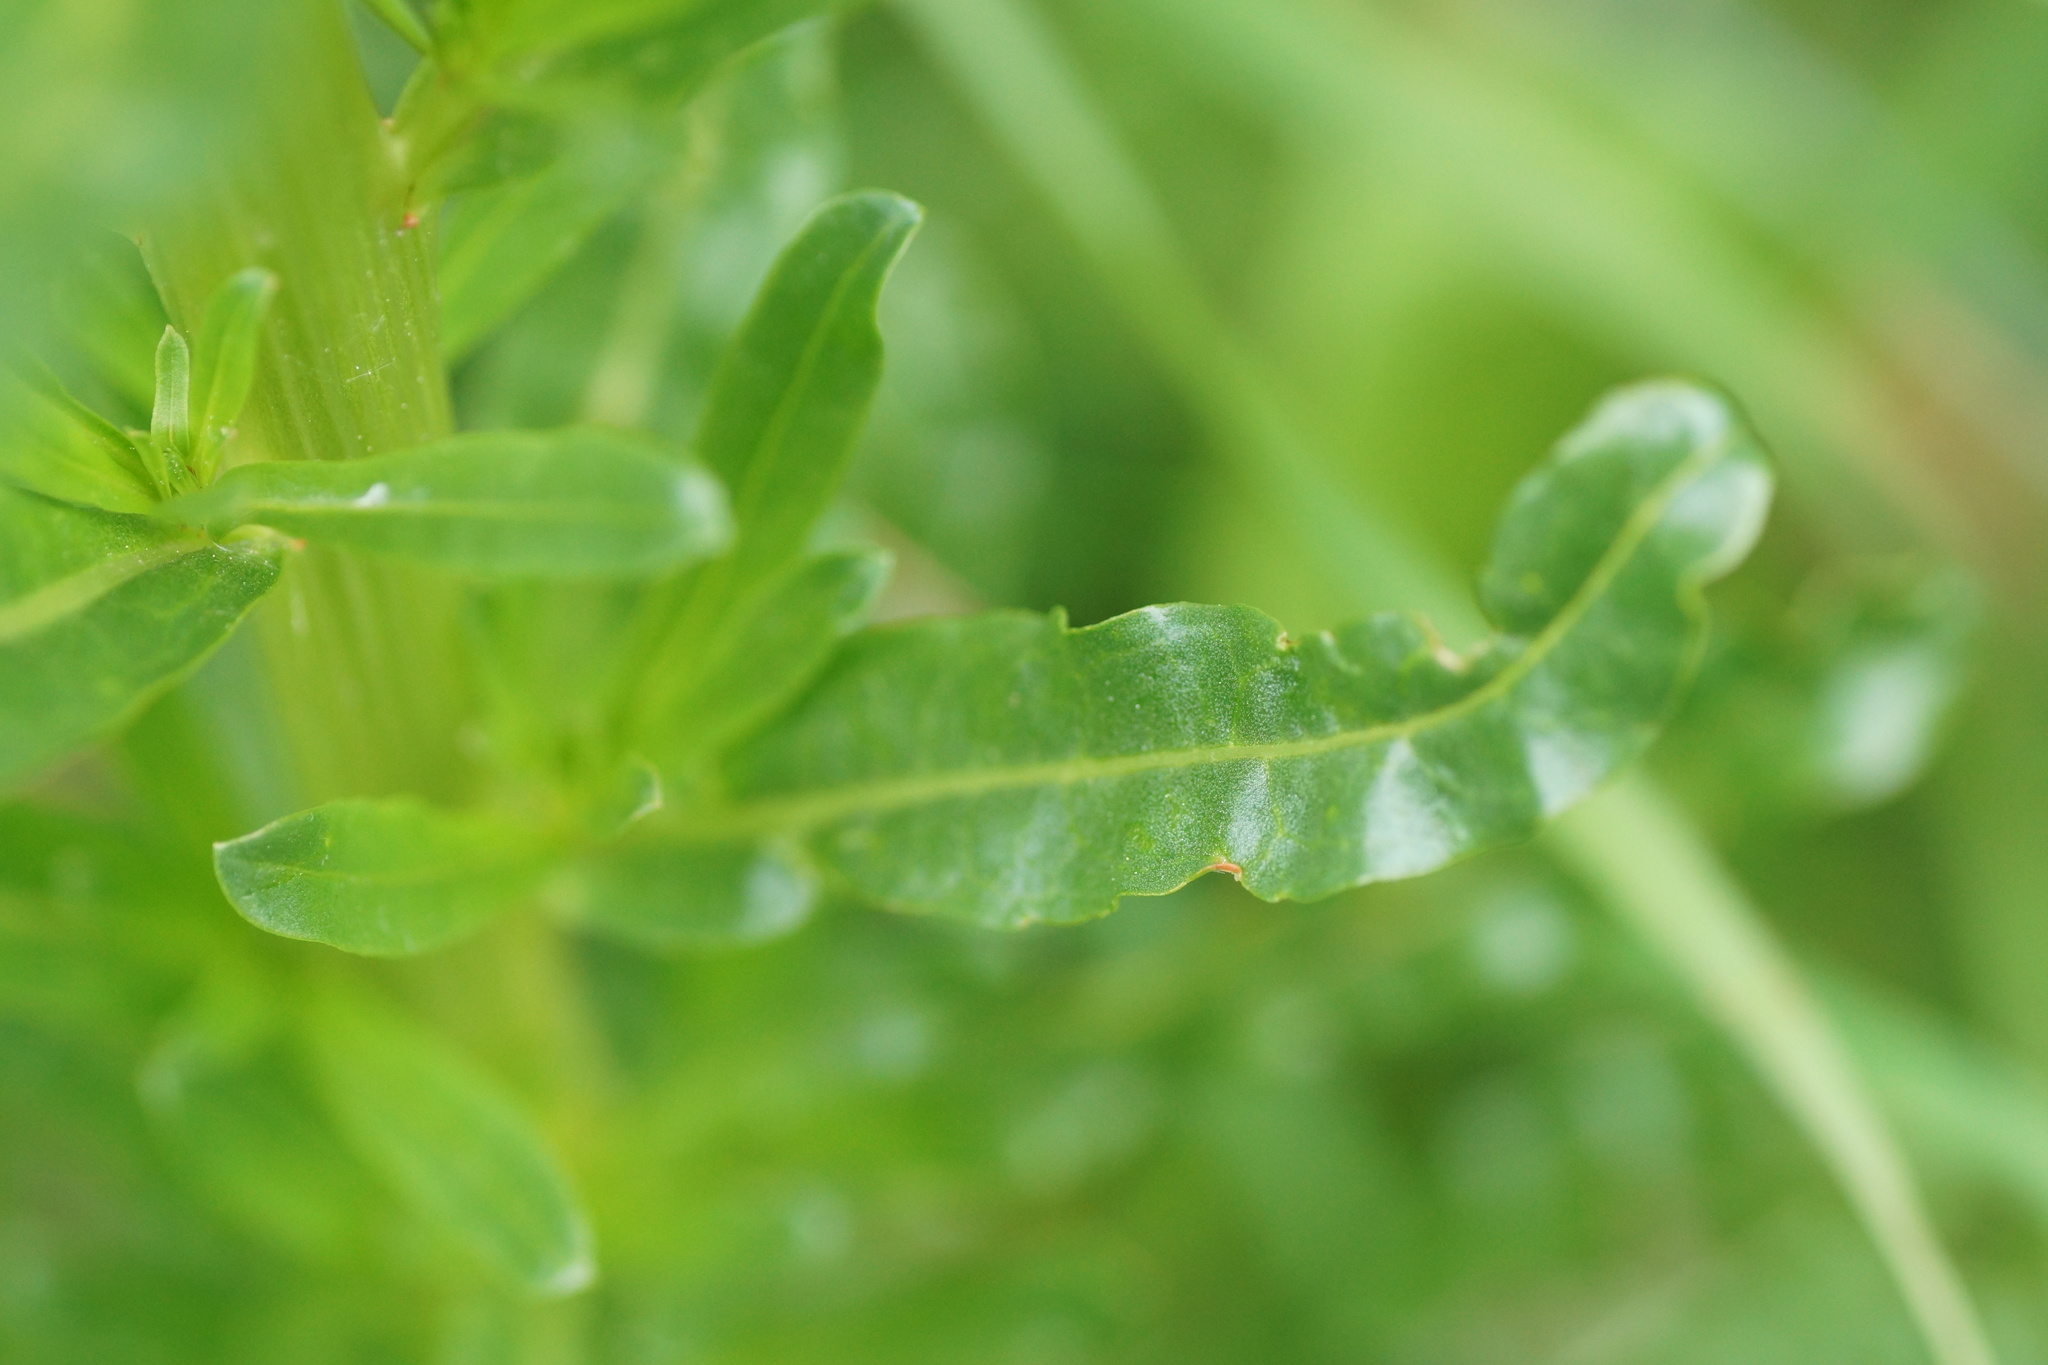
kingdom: Plantae
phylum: Tracheophyta
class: Magnoliopsida
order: Brassicales
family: Resedaceae
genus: Reseda
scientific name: Reseda luteola
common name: Weld
